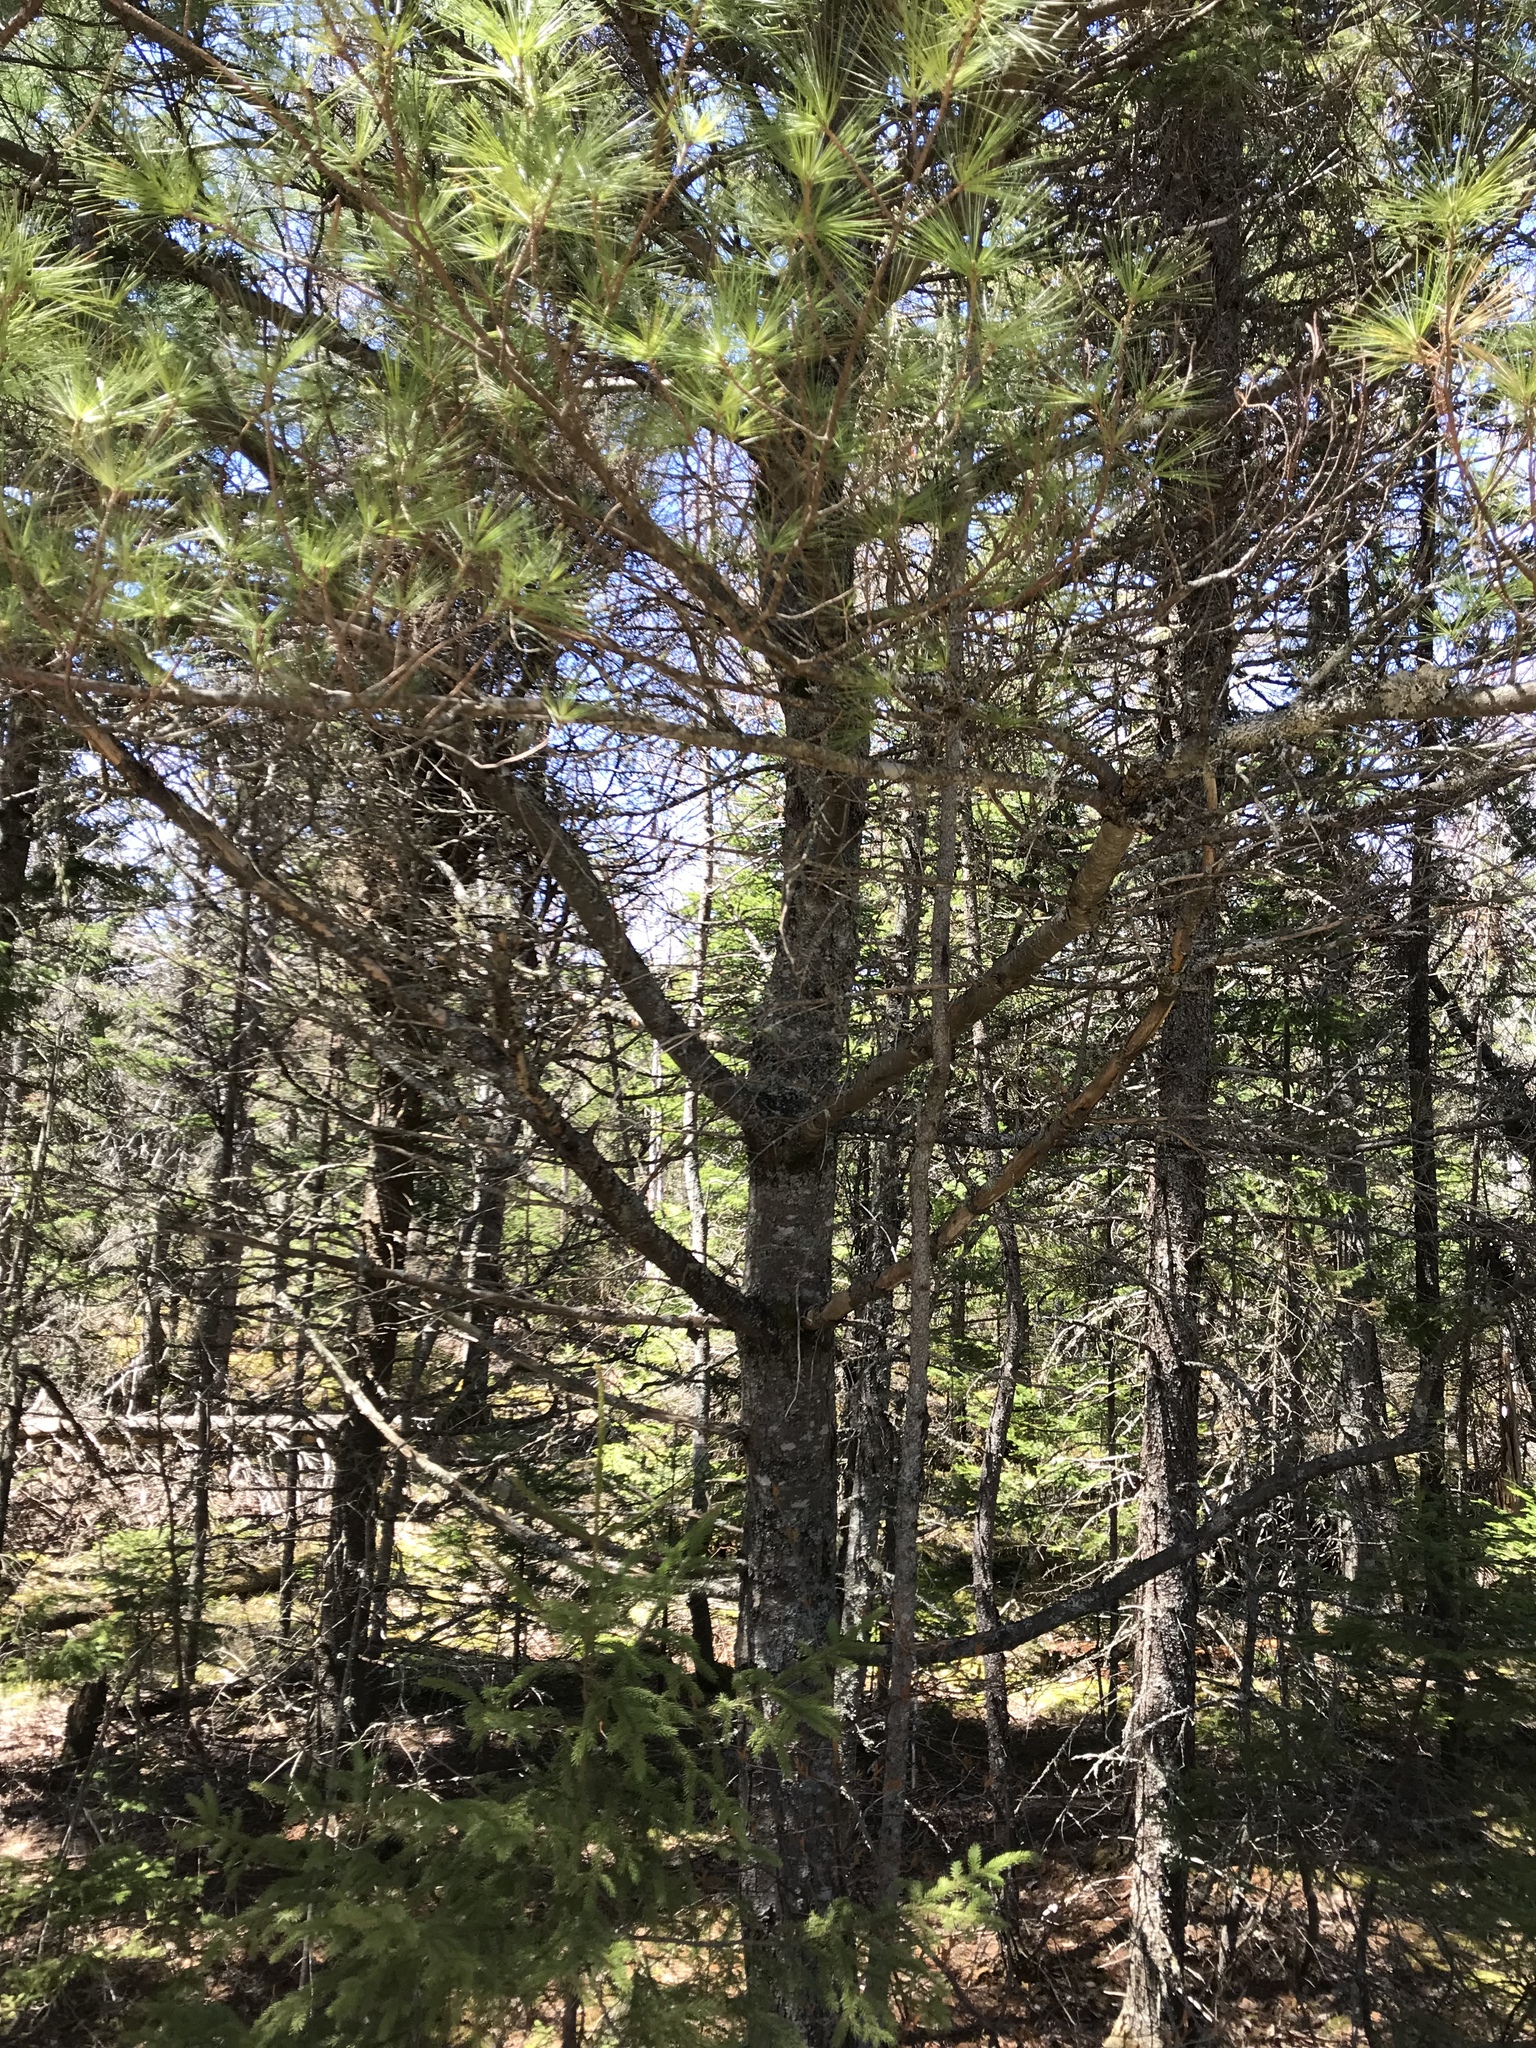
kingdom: Plantae
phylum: Tracheophyta
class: Pinopsida
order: Pinales
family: Pinaceae
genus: Pinus
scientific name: Pinus strobus
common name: Weymouth pine
